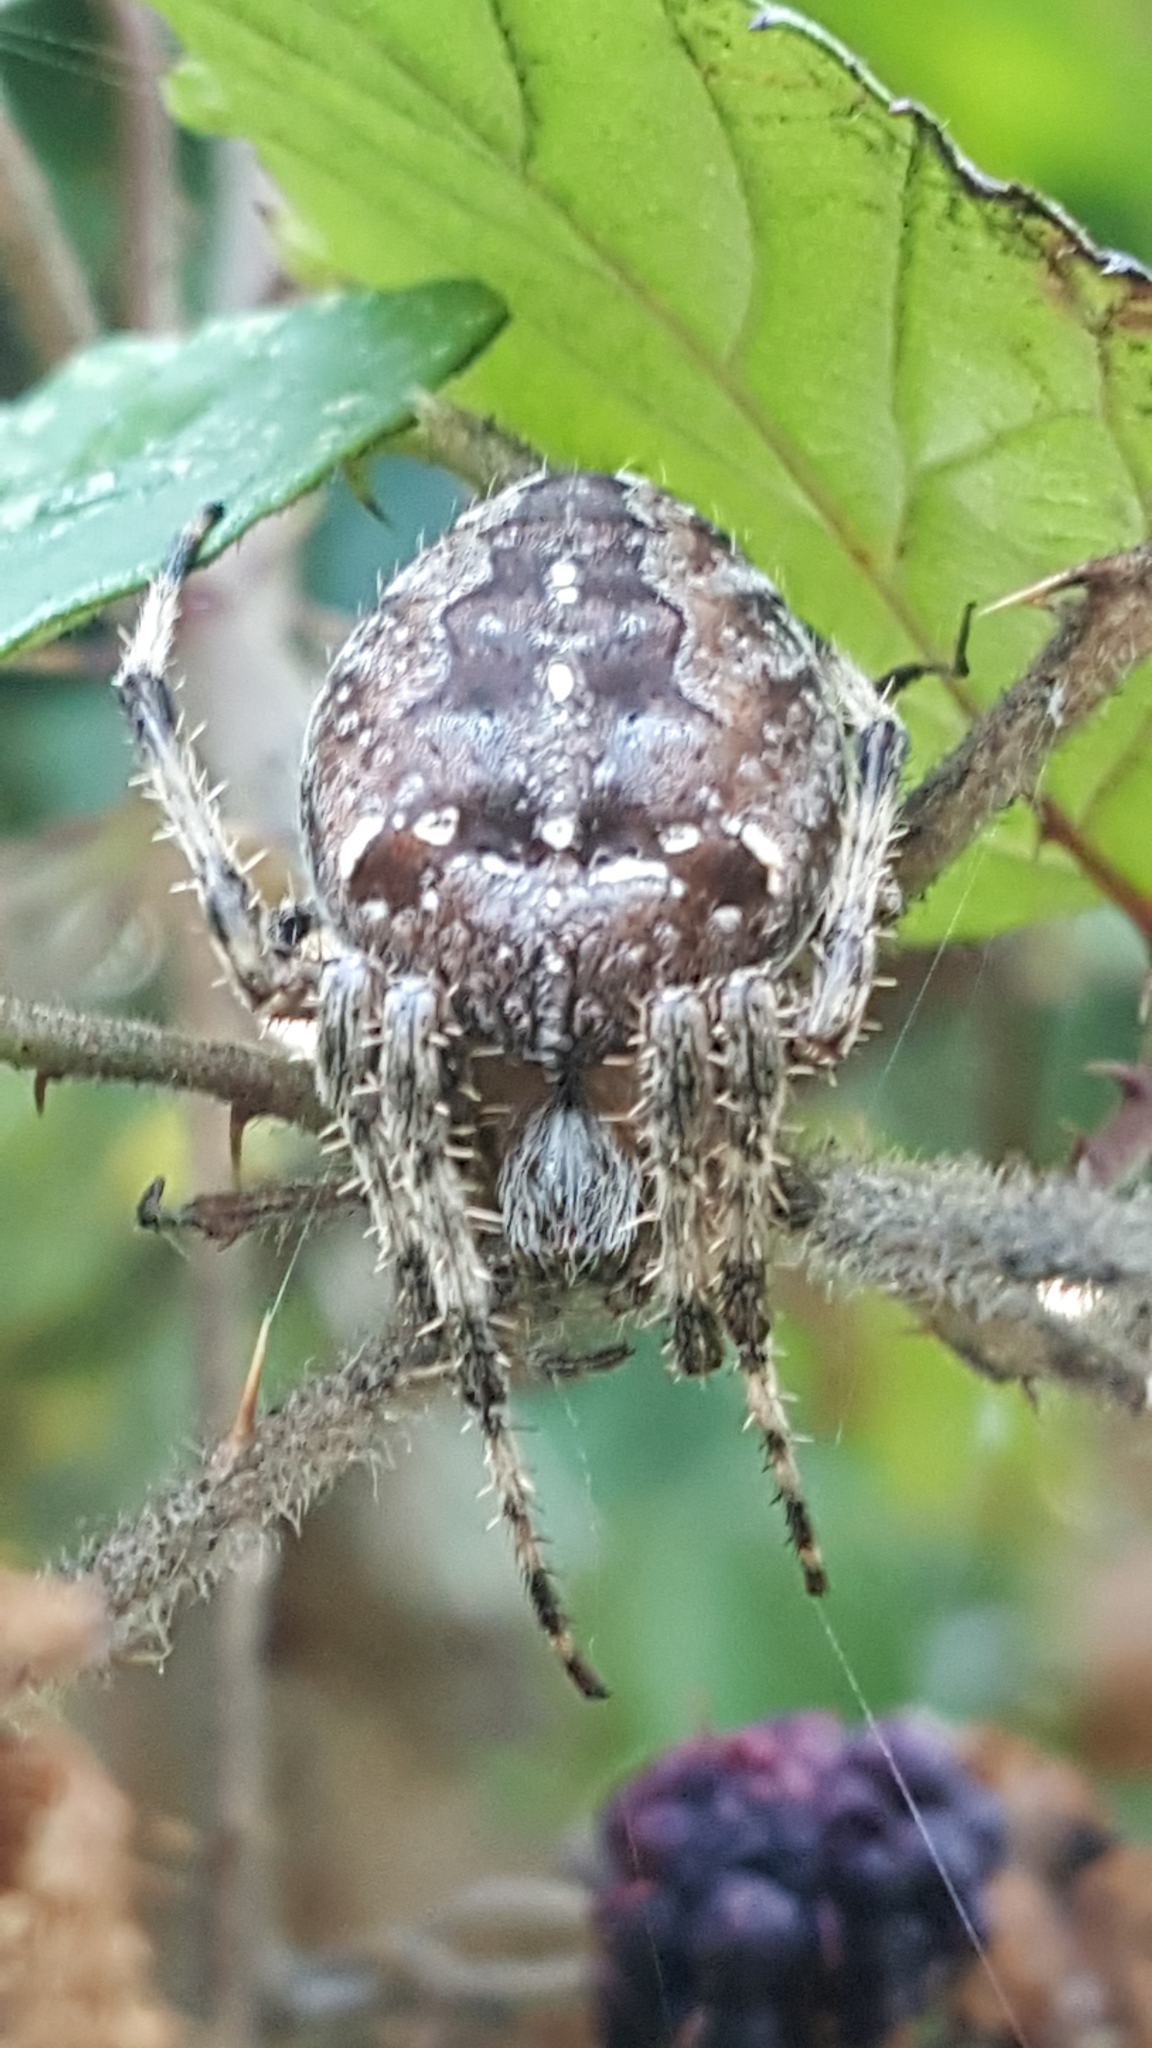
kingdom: Animalia
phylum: Arthropoda
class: Arachnida
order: Araneae
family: Araneidae
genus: Araneus
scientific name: Araneus diadematus
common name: Cross orbweaver
